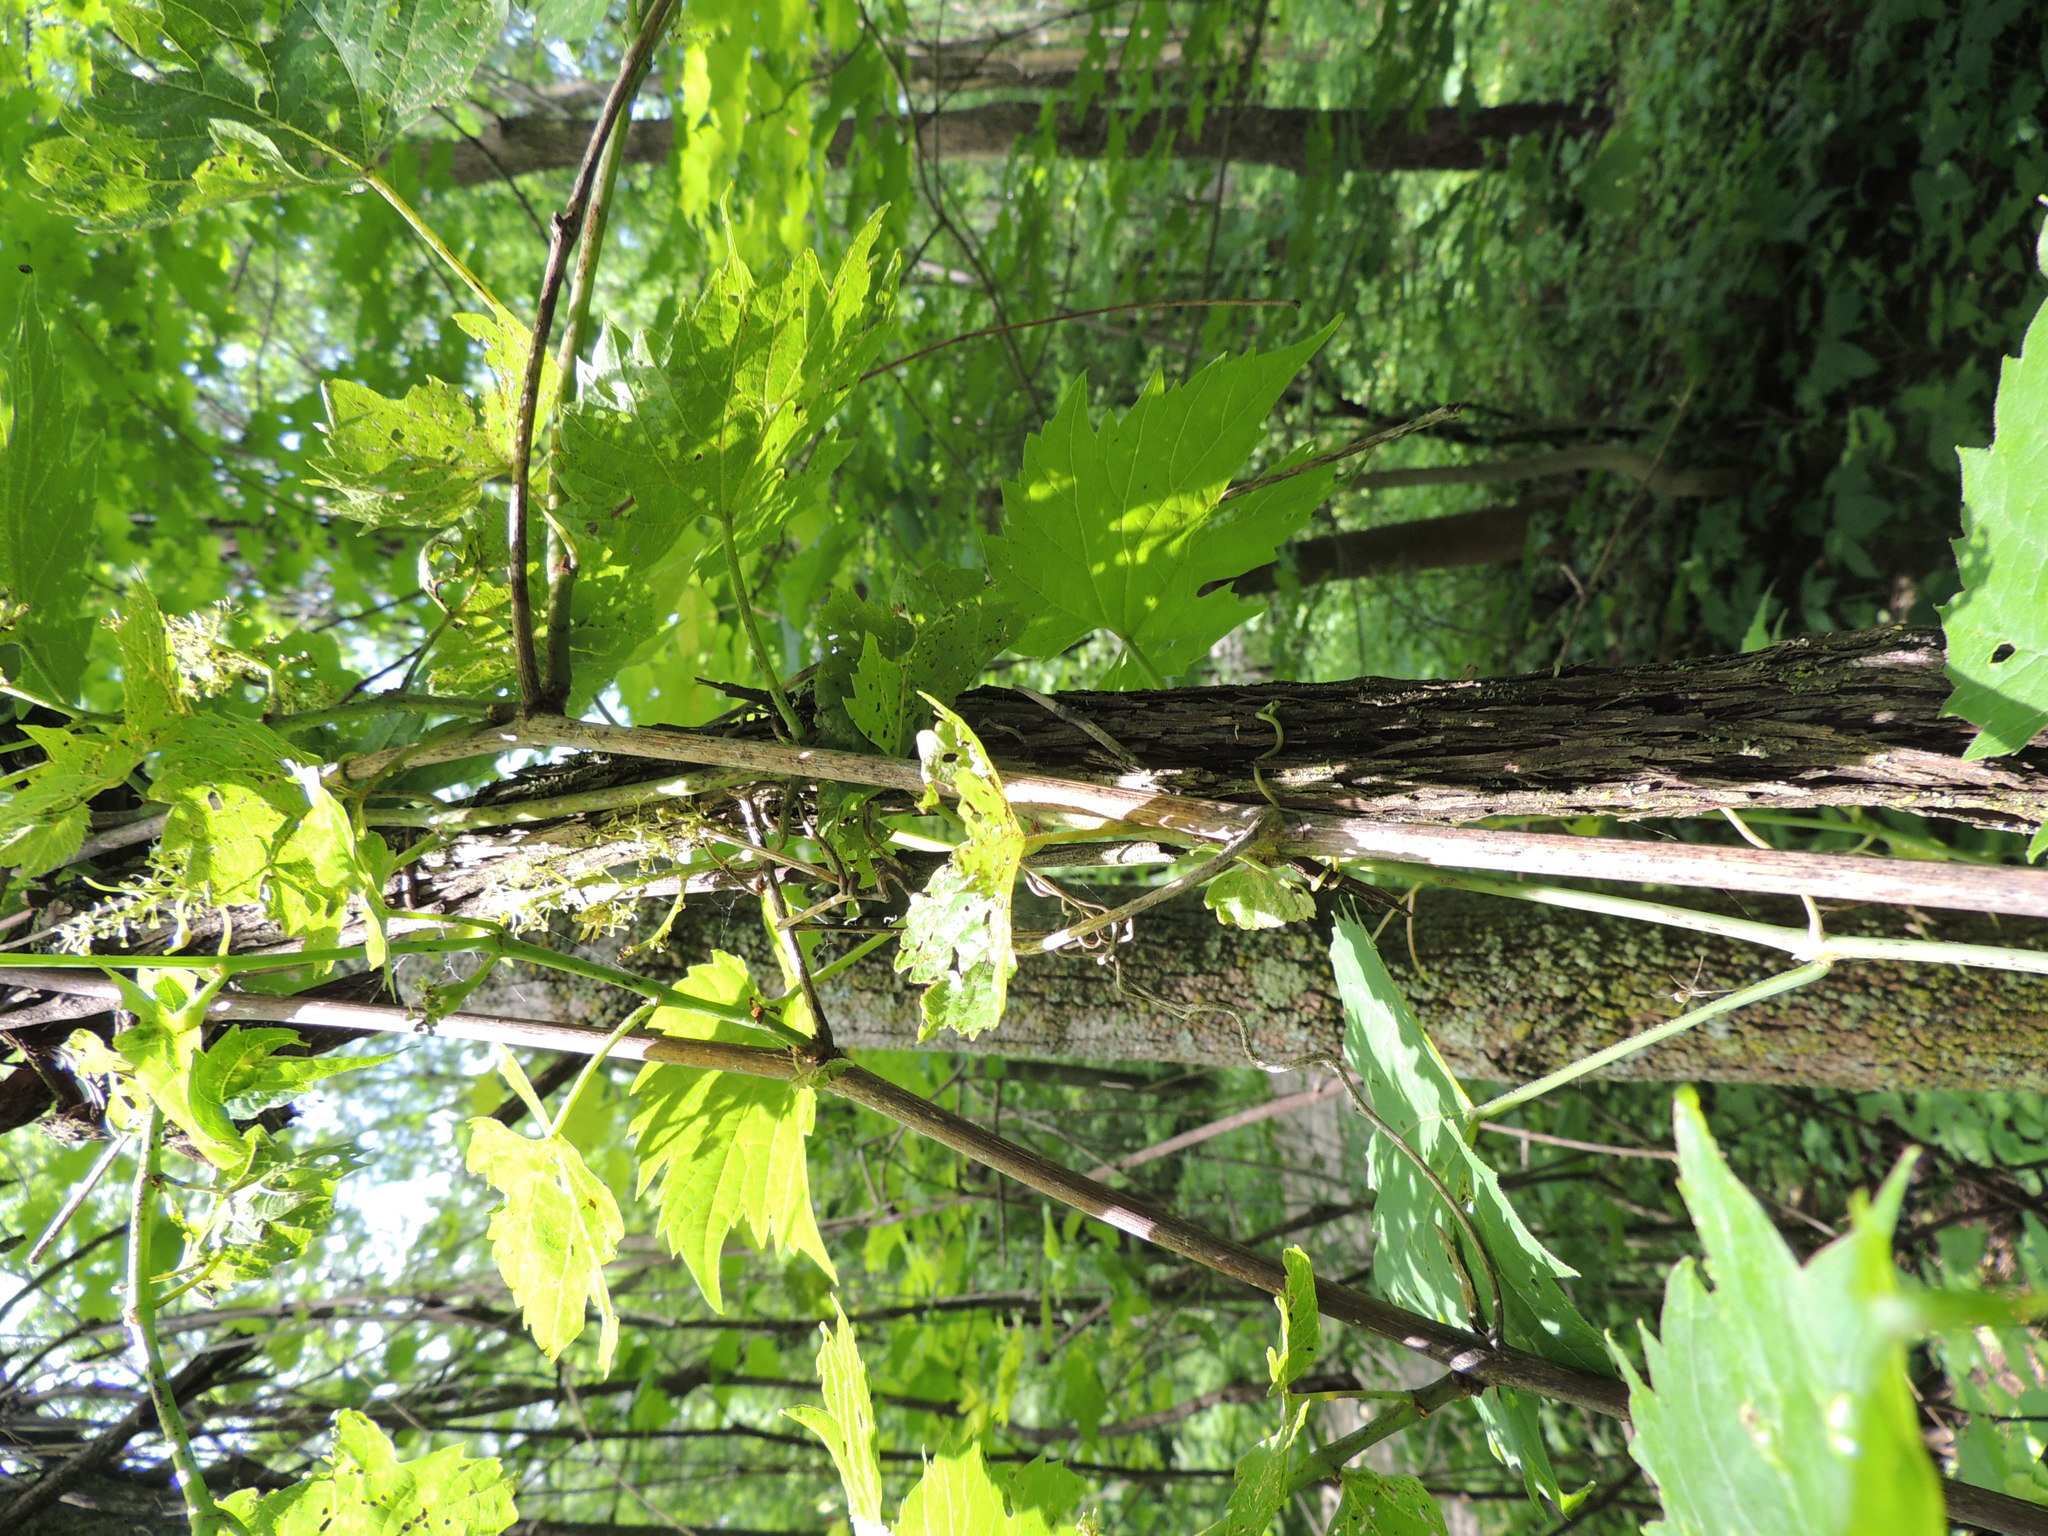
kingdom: Plantae
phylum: Tracheophyta
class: Magnoliopsida
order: Vitales
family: Vitaceae
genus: Vitis
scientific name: Vitis riparia
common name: Frost grape
